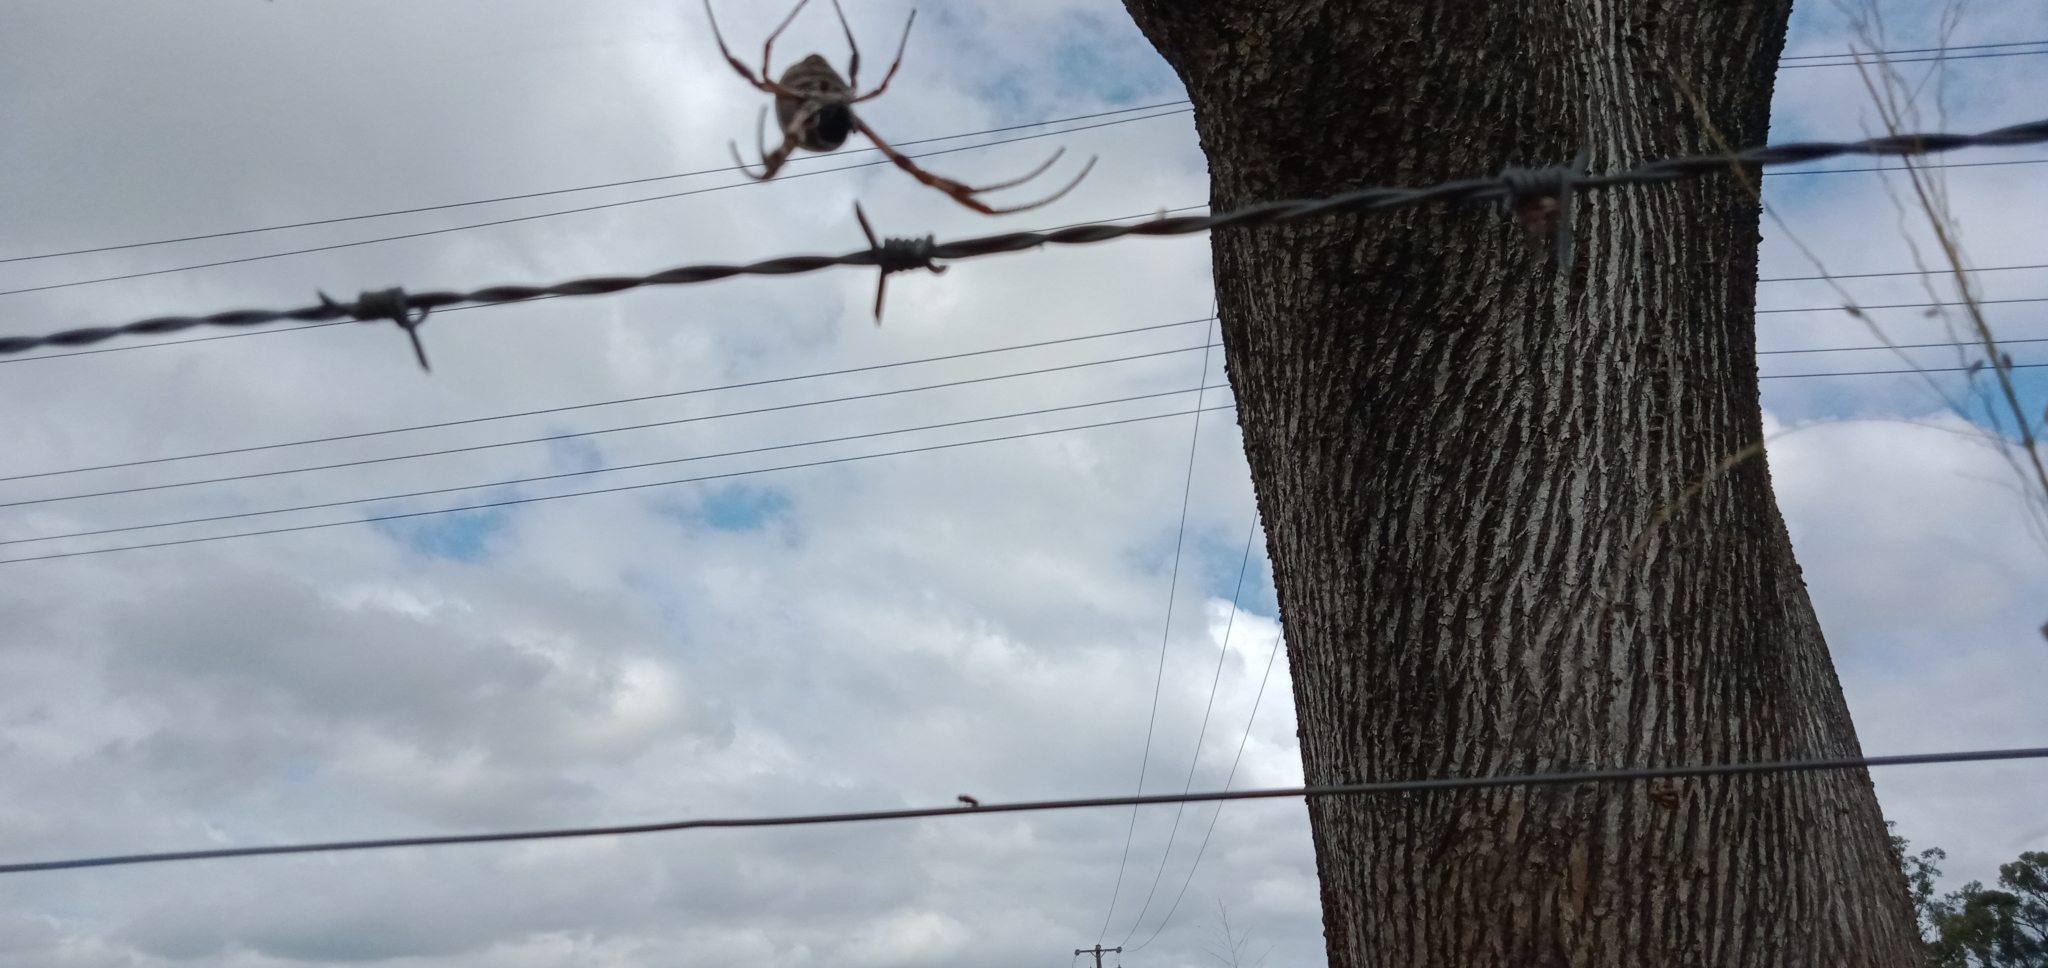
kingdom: Animalia
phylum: Arthropoda
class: Arachnida
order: Araneae
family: Araneidae
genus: Trichonephila
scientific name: Trichonephila edulis
